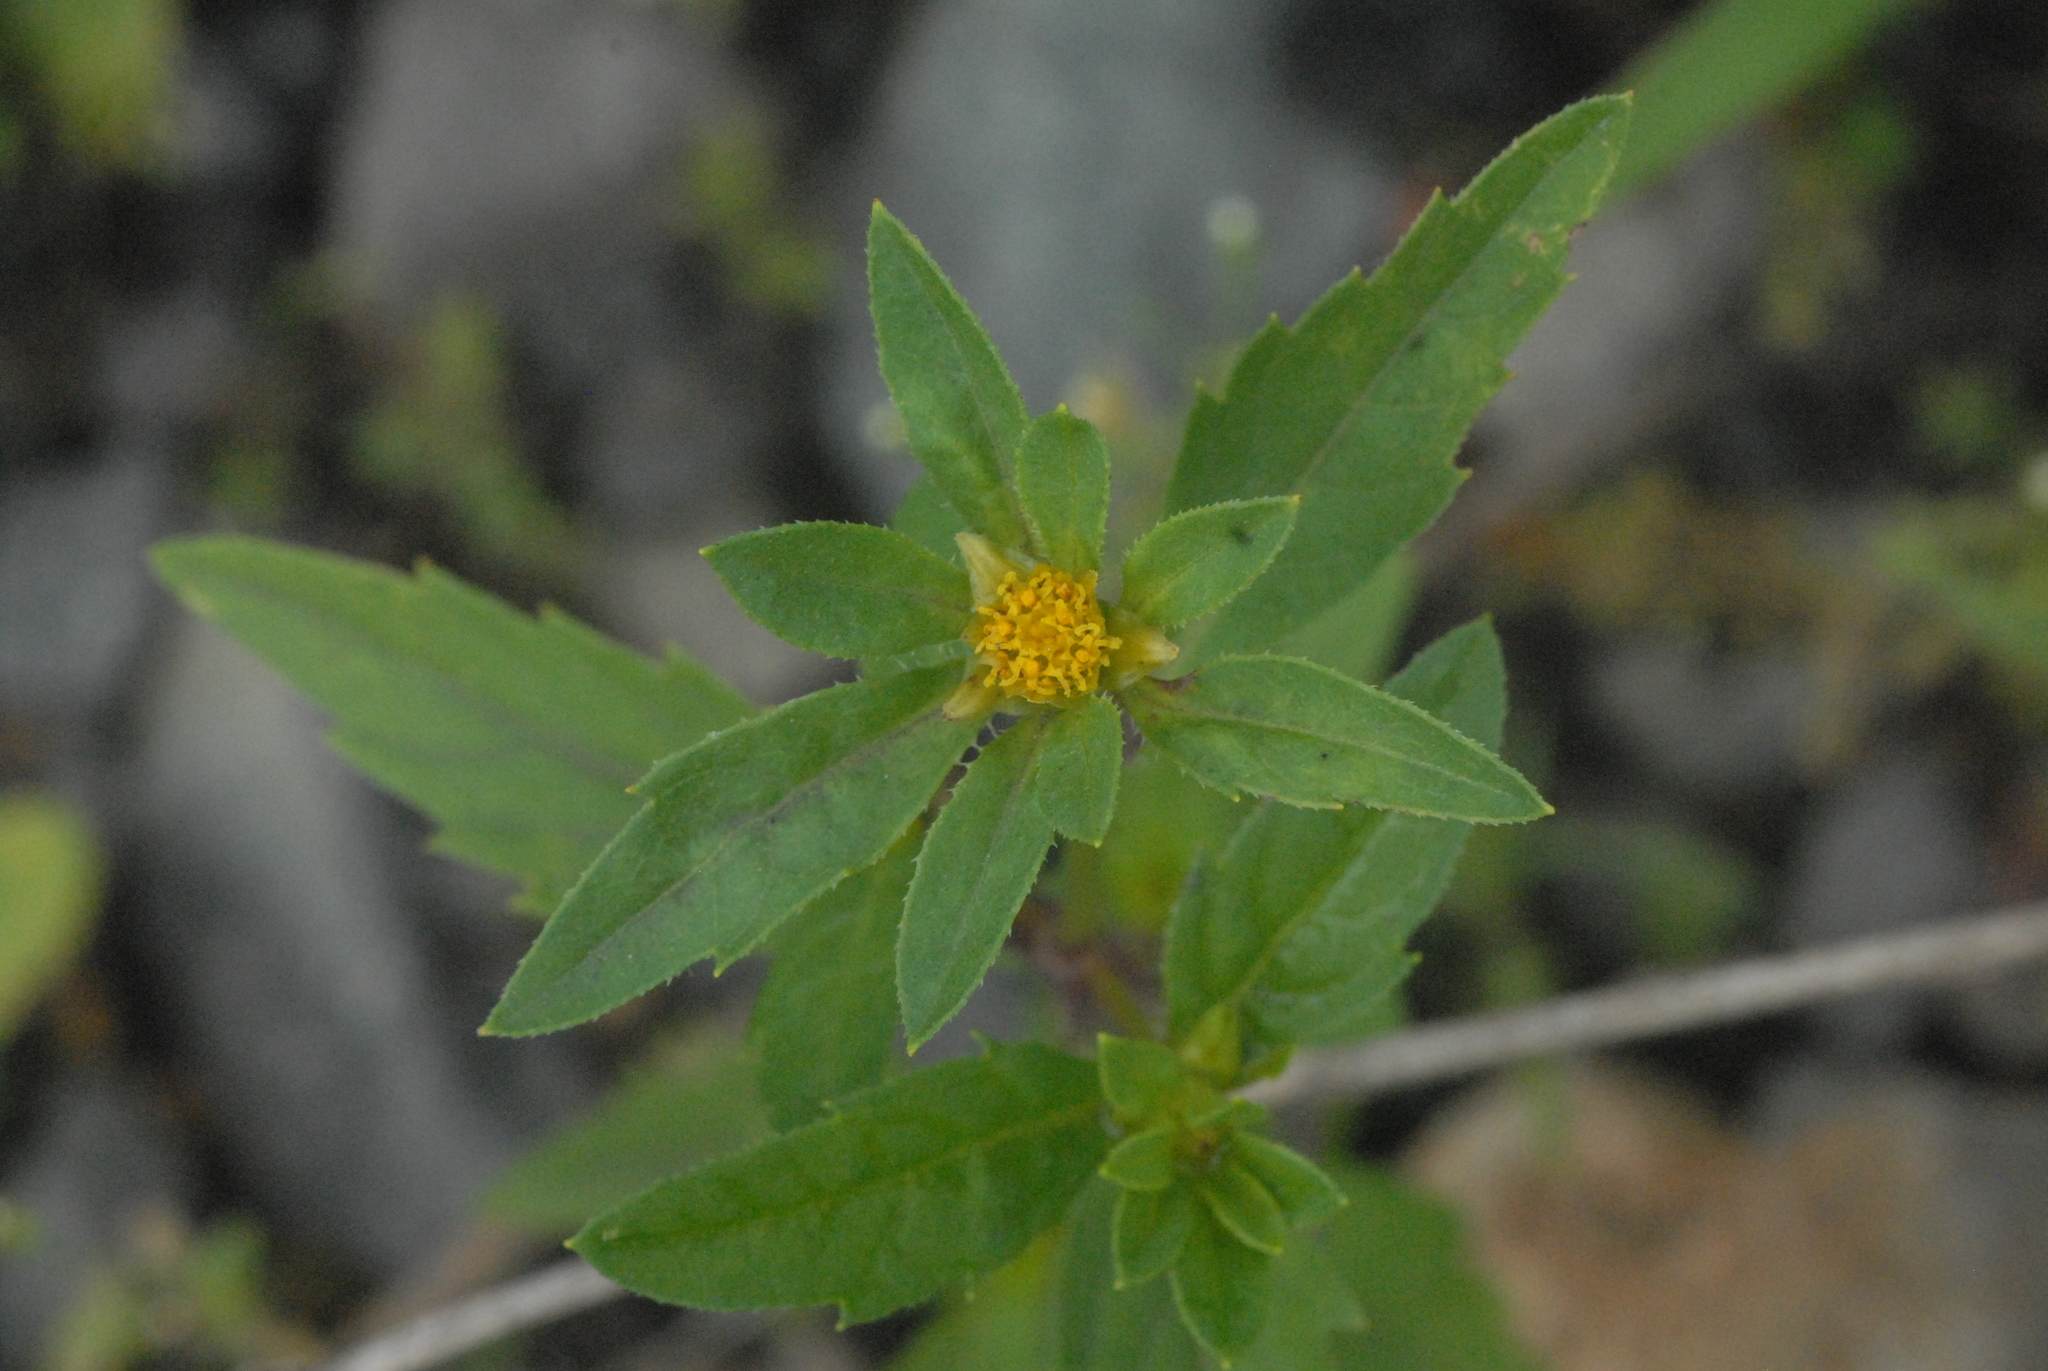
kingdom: Plantae
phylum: Tracheophyta
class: Magnoliopsida
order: Asterales
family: Asteraceae
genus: Bidens
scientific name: Bidens tripartita
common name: Trifid bur-marigold
